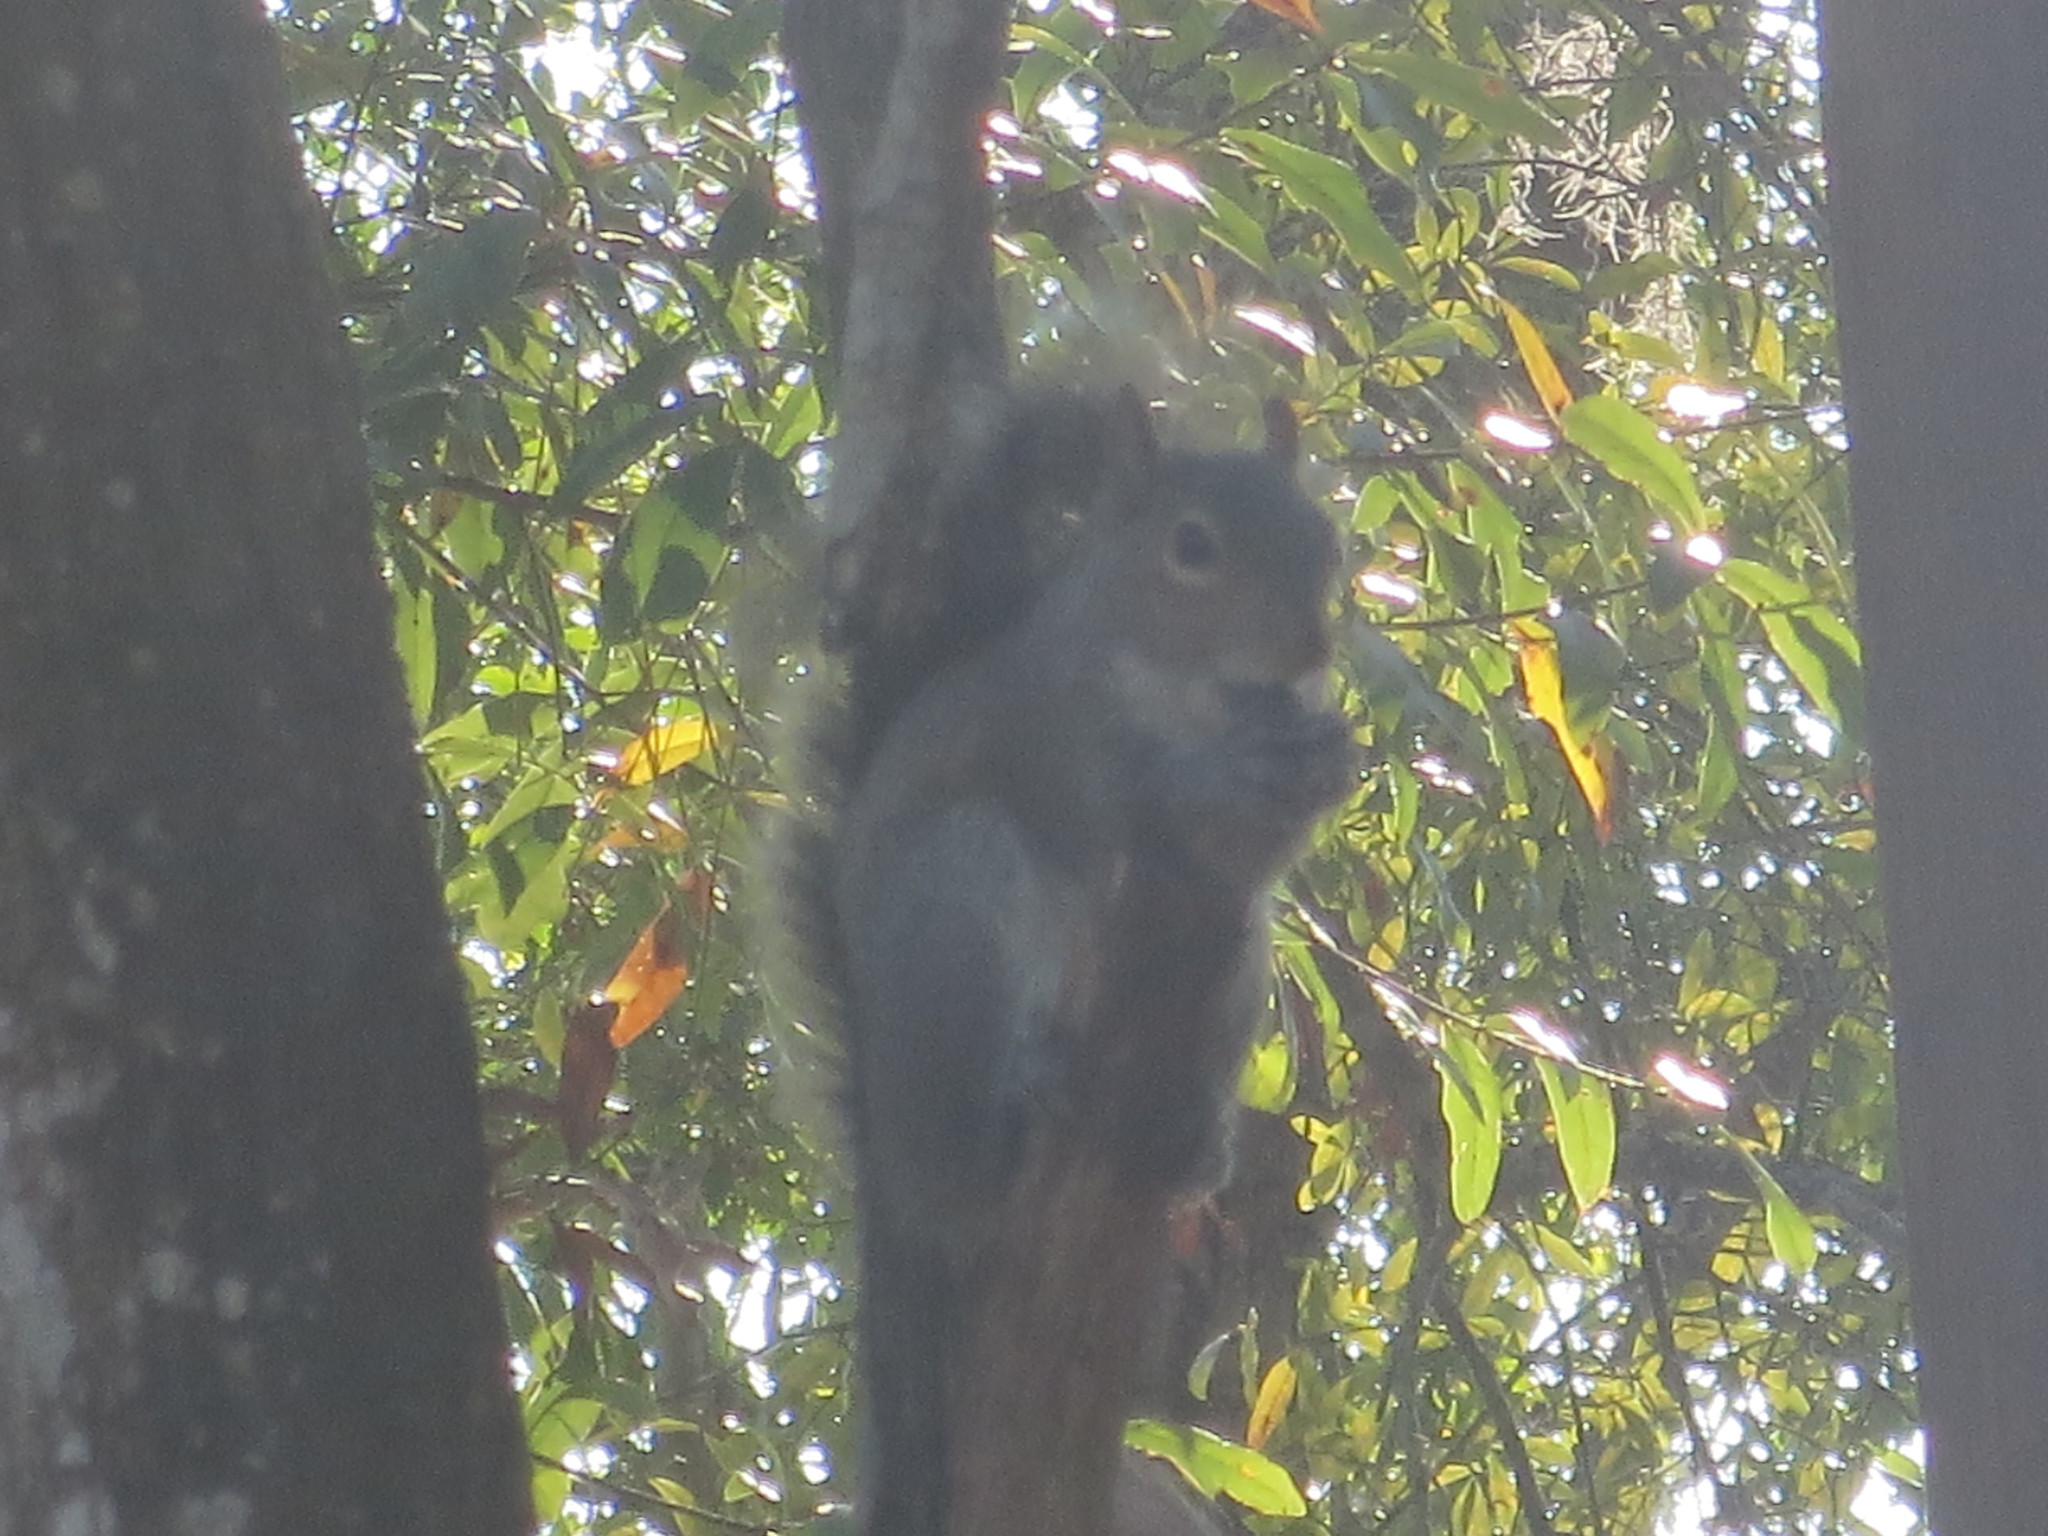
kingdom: Animalia
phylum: Chordata
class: Mammalia
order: Rodentia
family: Sciuridae
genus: Sciurus
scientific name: Sciurus carolinensis
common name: Eastern gray squirrel
